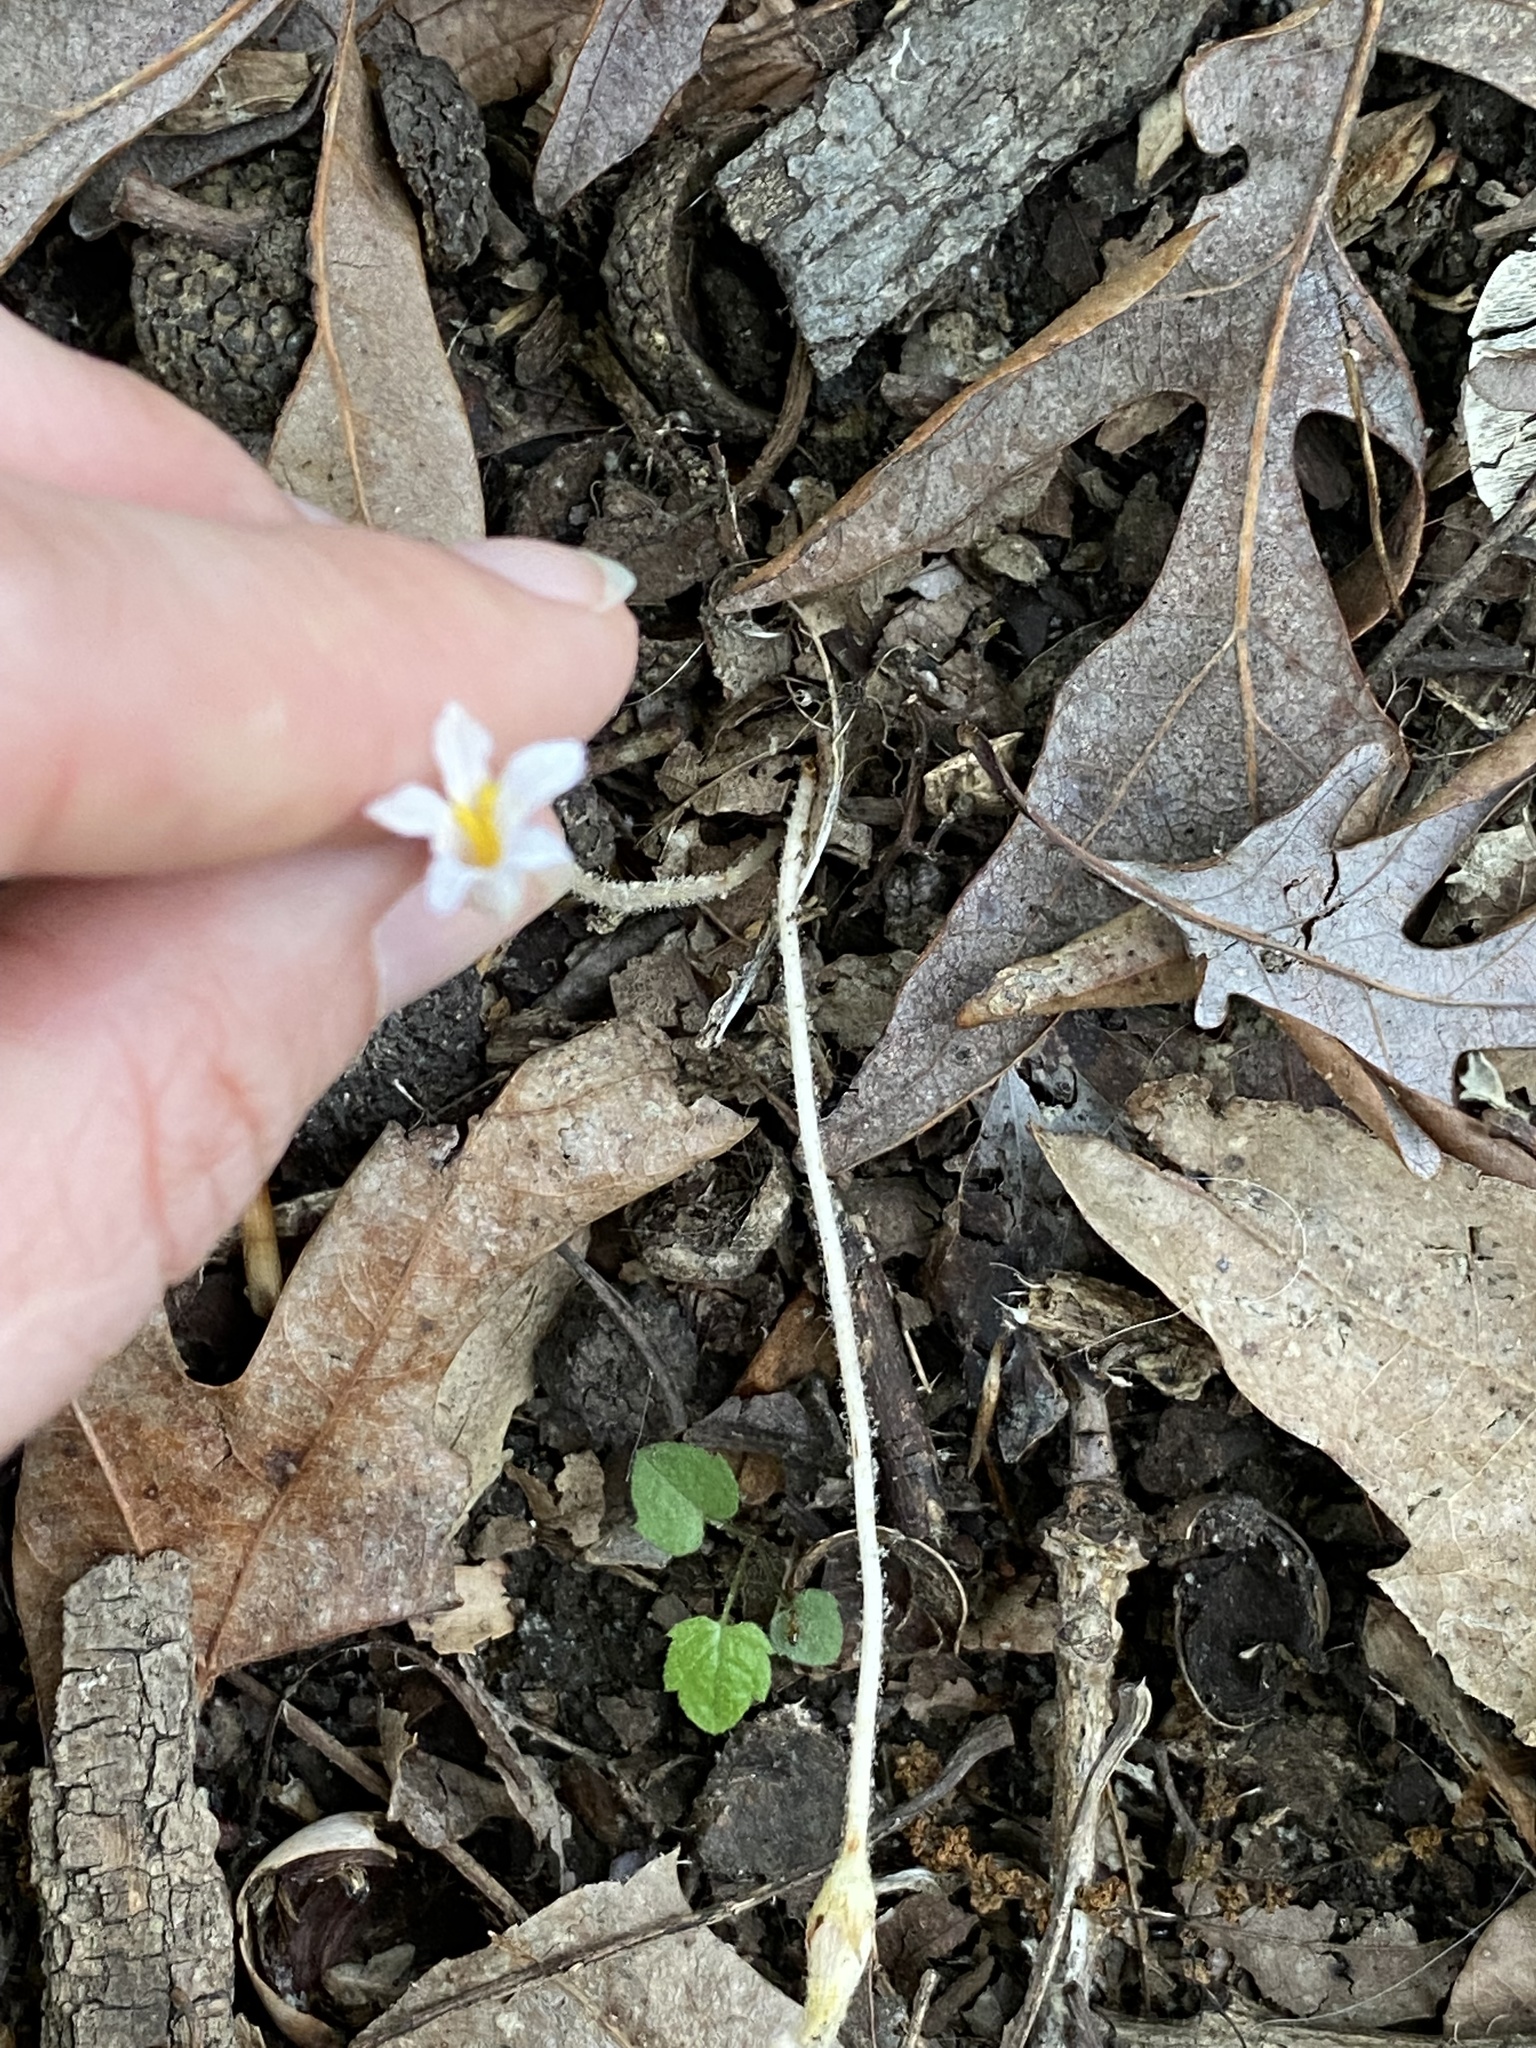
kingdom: Plantae
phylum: Tracheophyta
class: Magnoliopsida
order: Lamiales
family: Orobanchaceae
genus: Aphyllon
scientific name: Aphyllon uniflorum
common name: One-flowered broomrape
